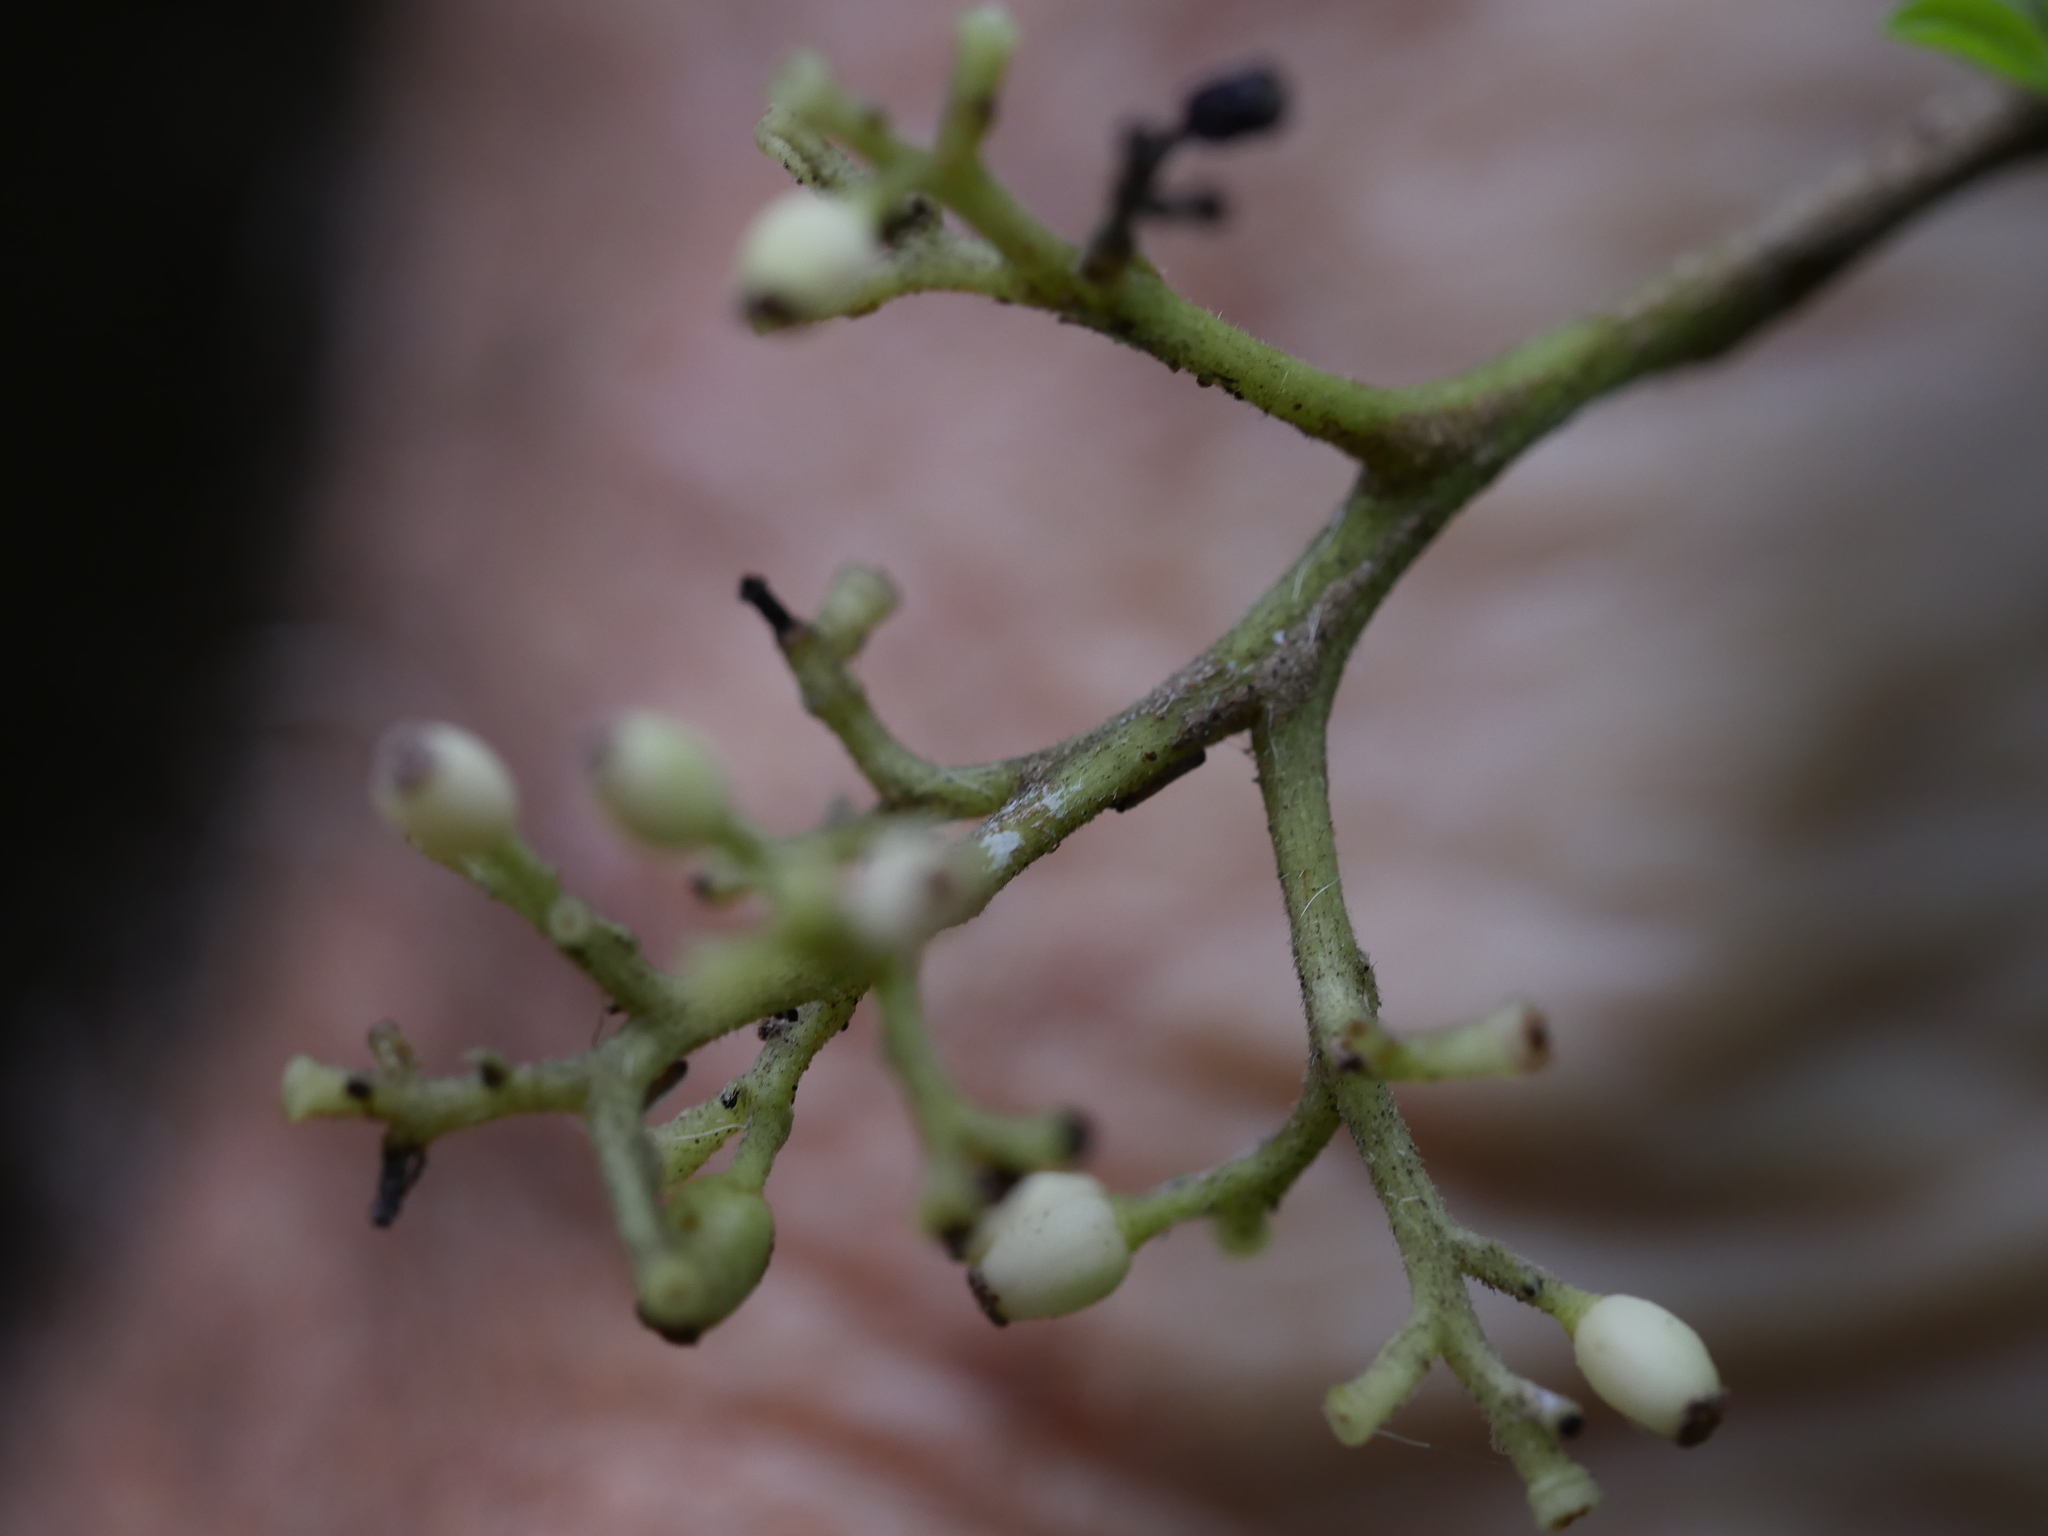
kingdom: Plantae
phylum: Tracheophyta
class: Magnoliopsida
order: Apiales
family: Pennantiaceae
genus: Pennantia
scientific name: Pennantia corymbosa
